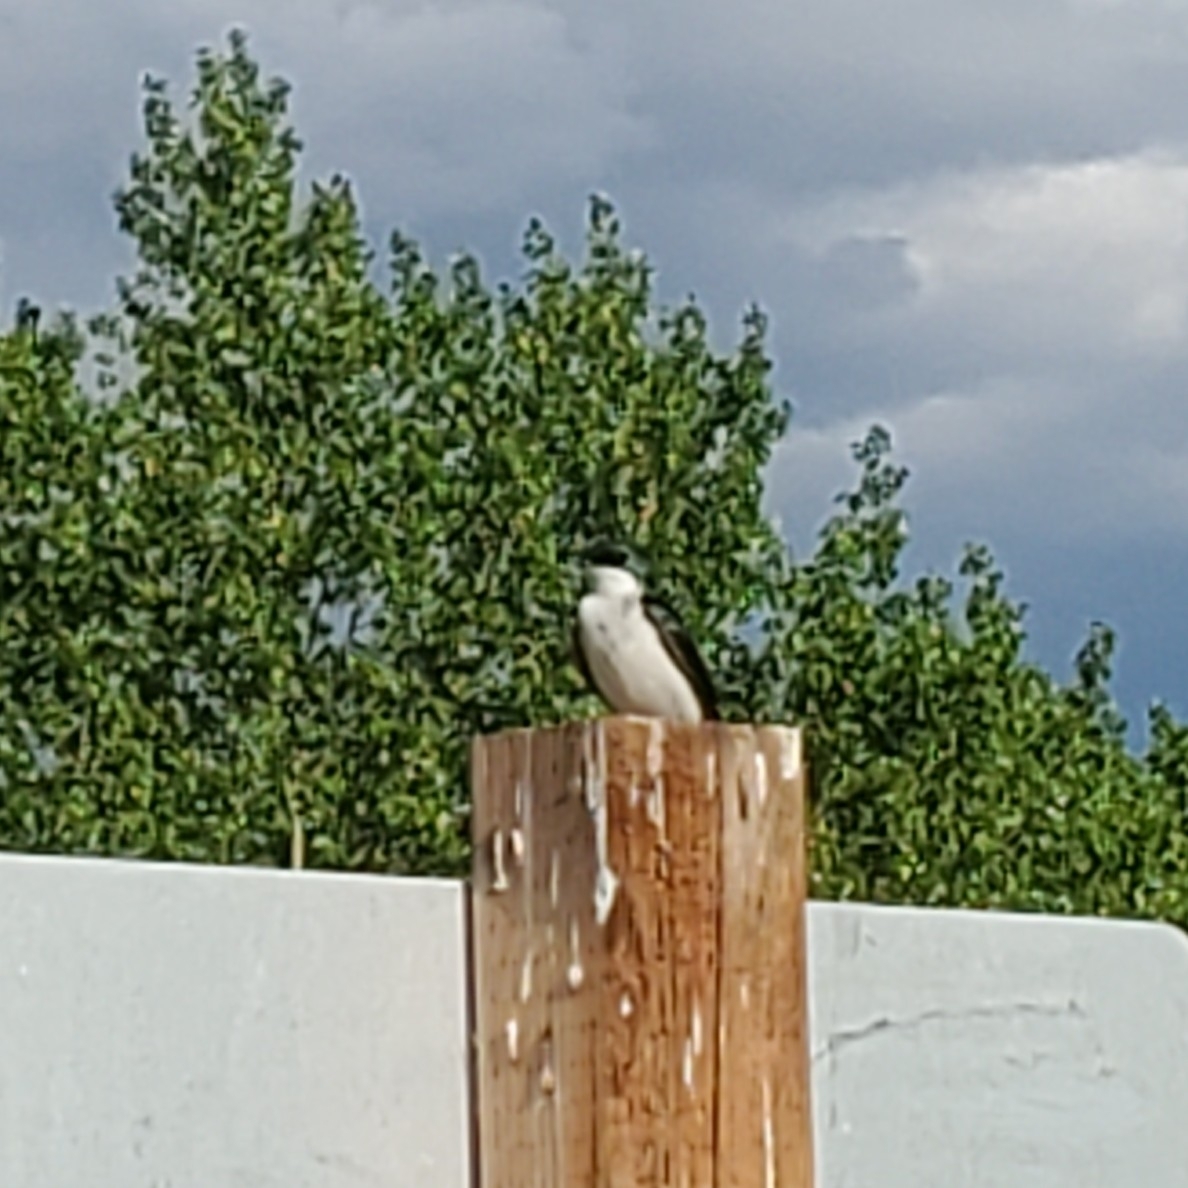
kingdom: Animalia
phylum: Chordata
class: Aves
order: Passeriformes
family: Hirundinidae
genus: Tachycineta
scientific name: Tachycineta bicolor
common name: Tree swallow
